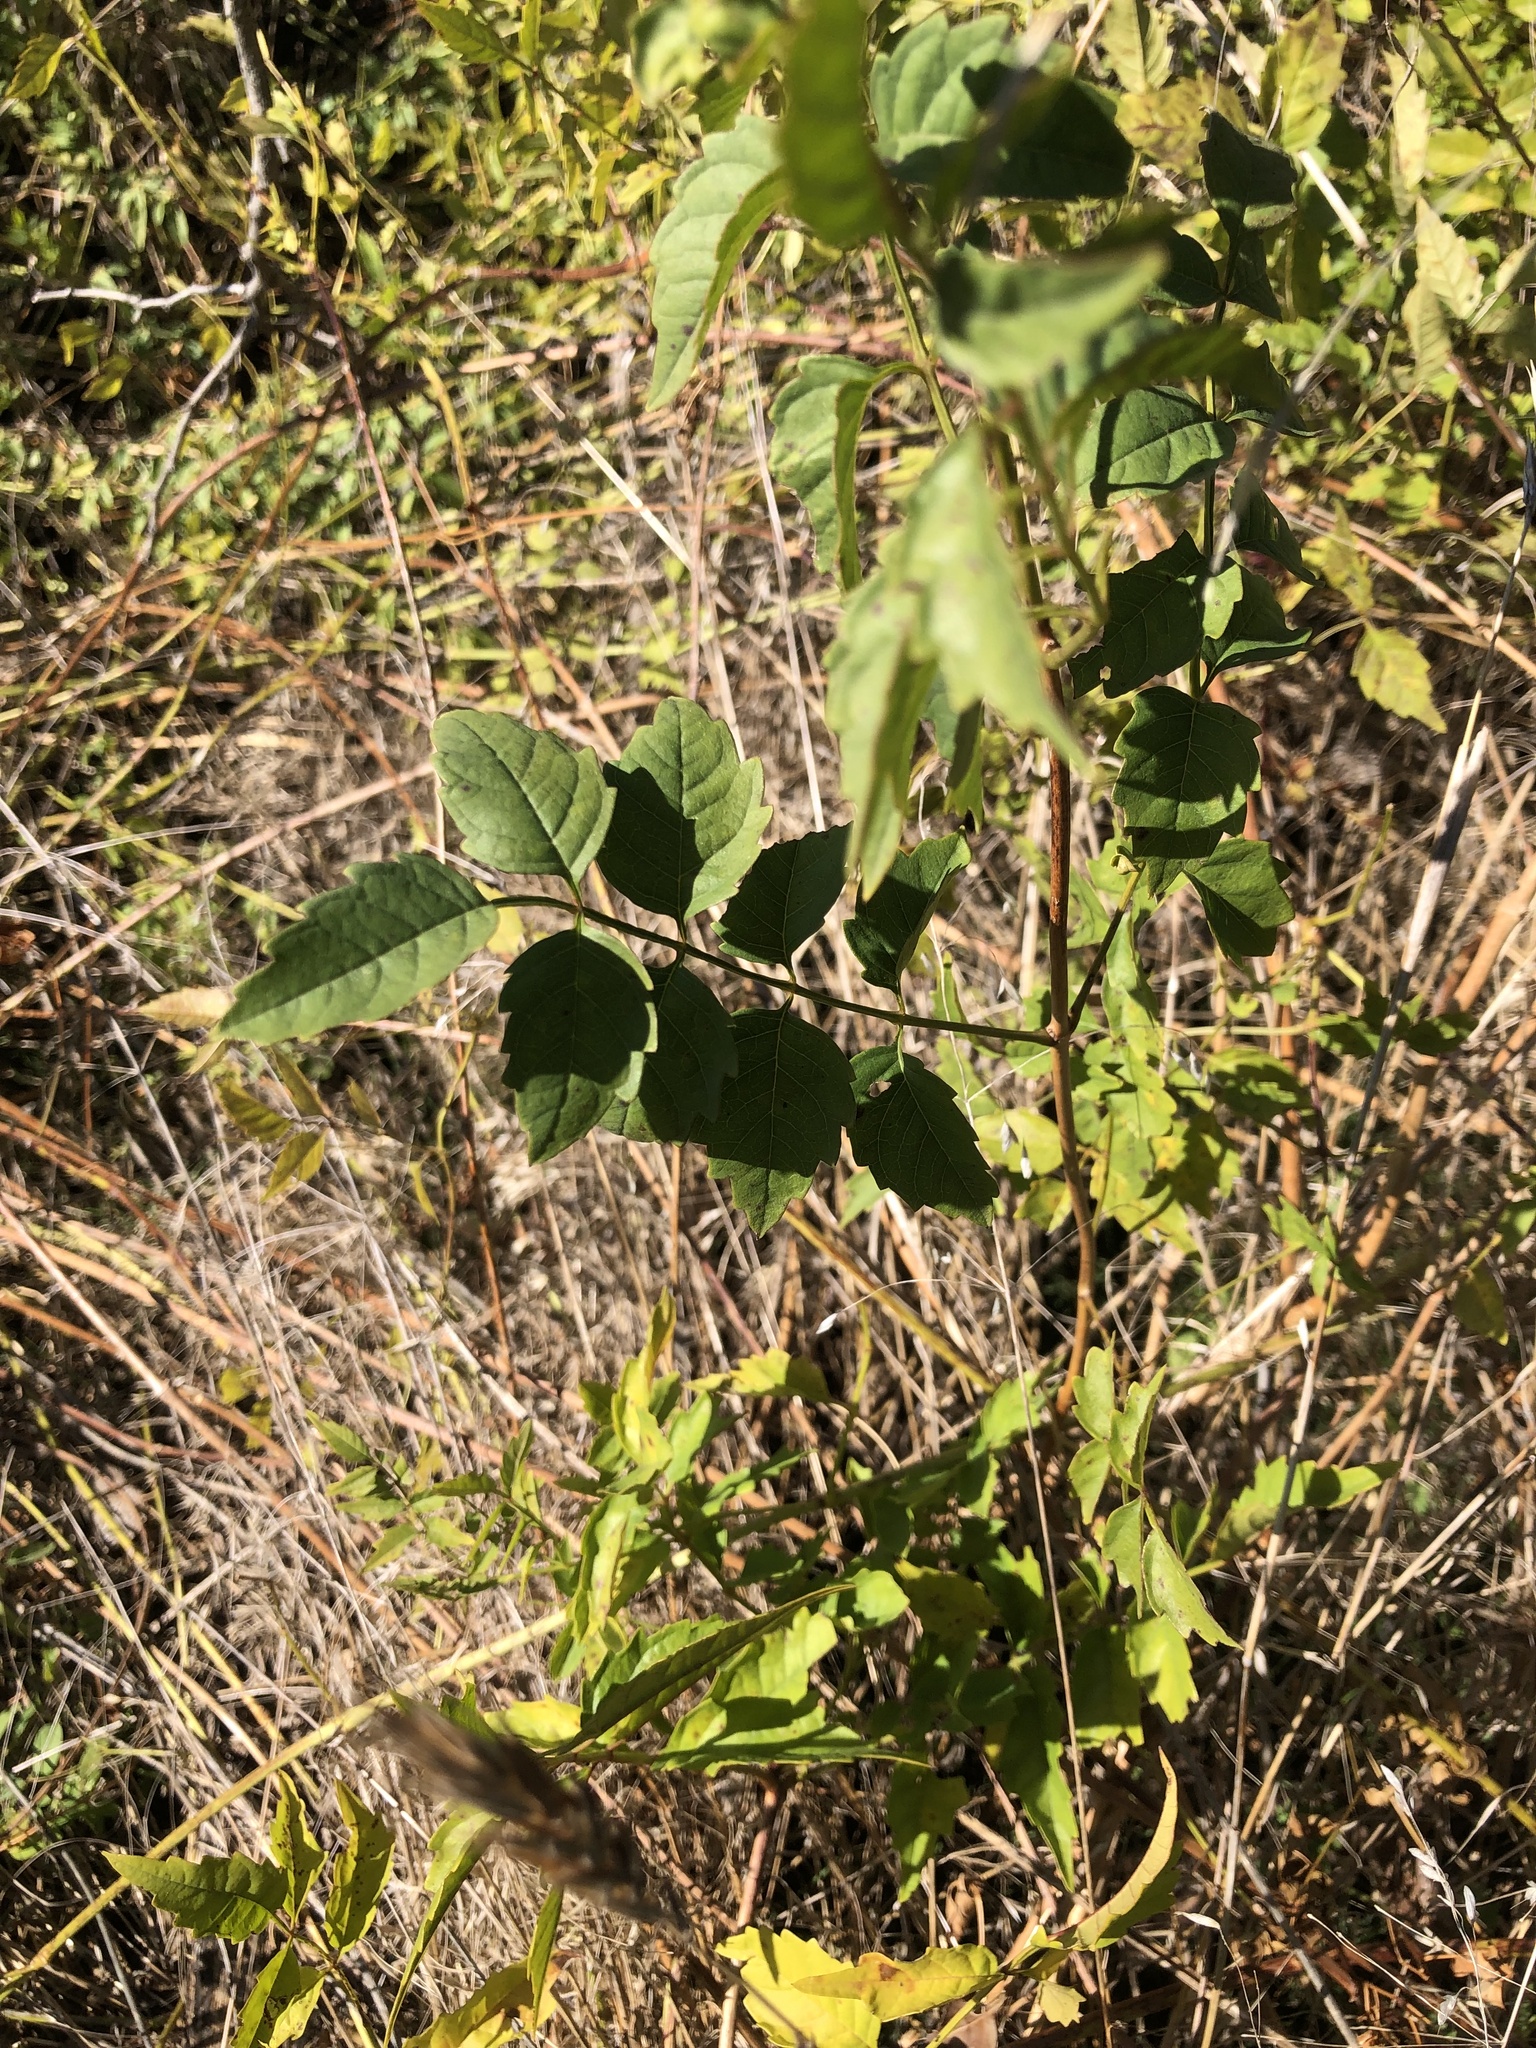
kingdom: Plantae
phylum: Tracheophyta
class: Magnoliopsida
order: Lamiales
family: Bignoniaceae
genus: Campsis
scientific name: Campsis radicans
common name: Trumpet-creeper
